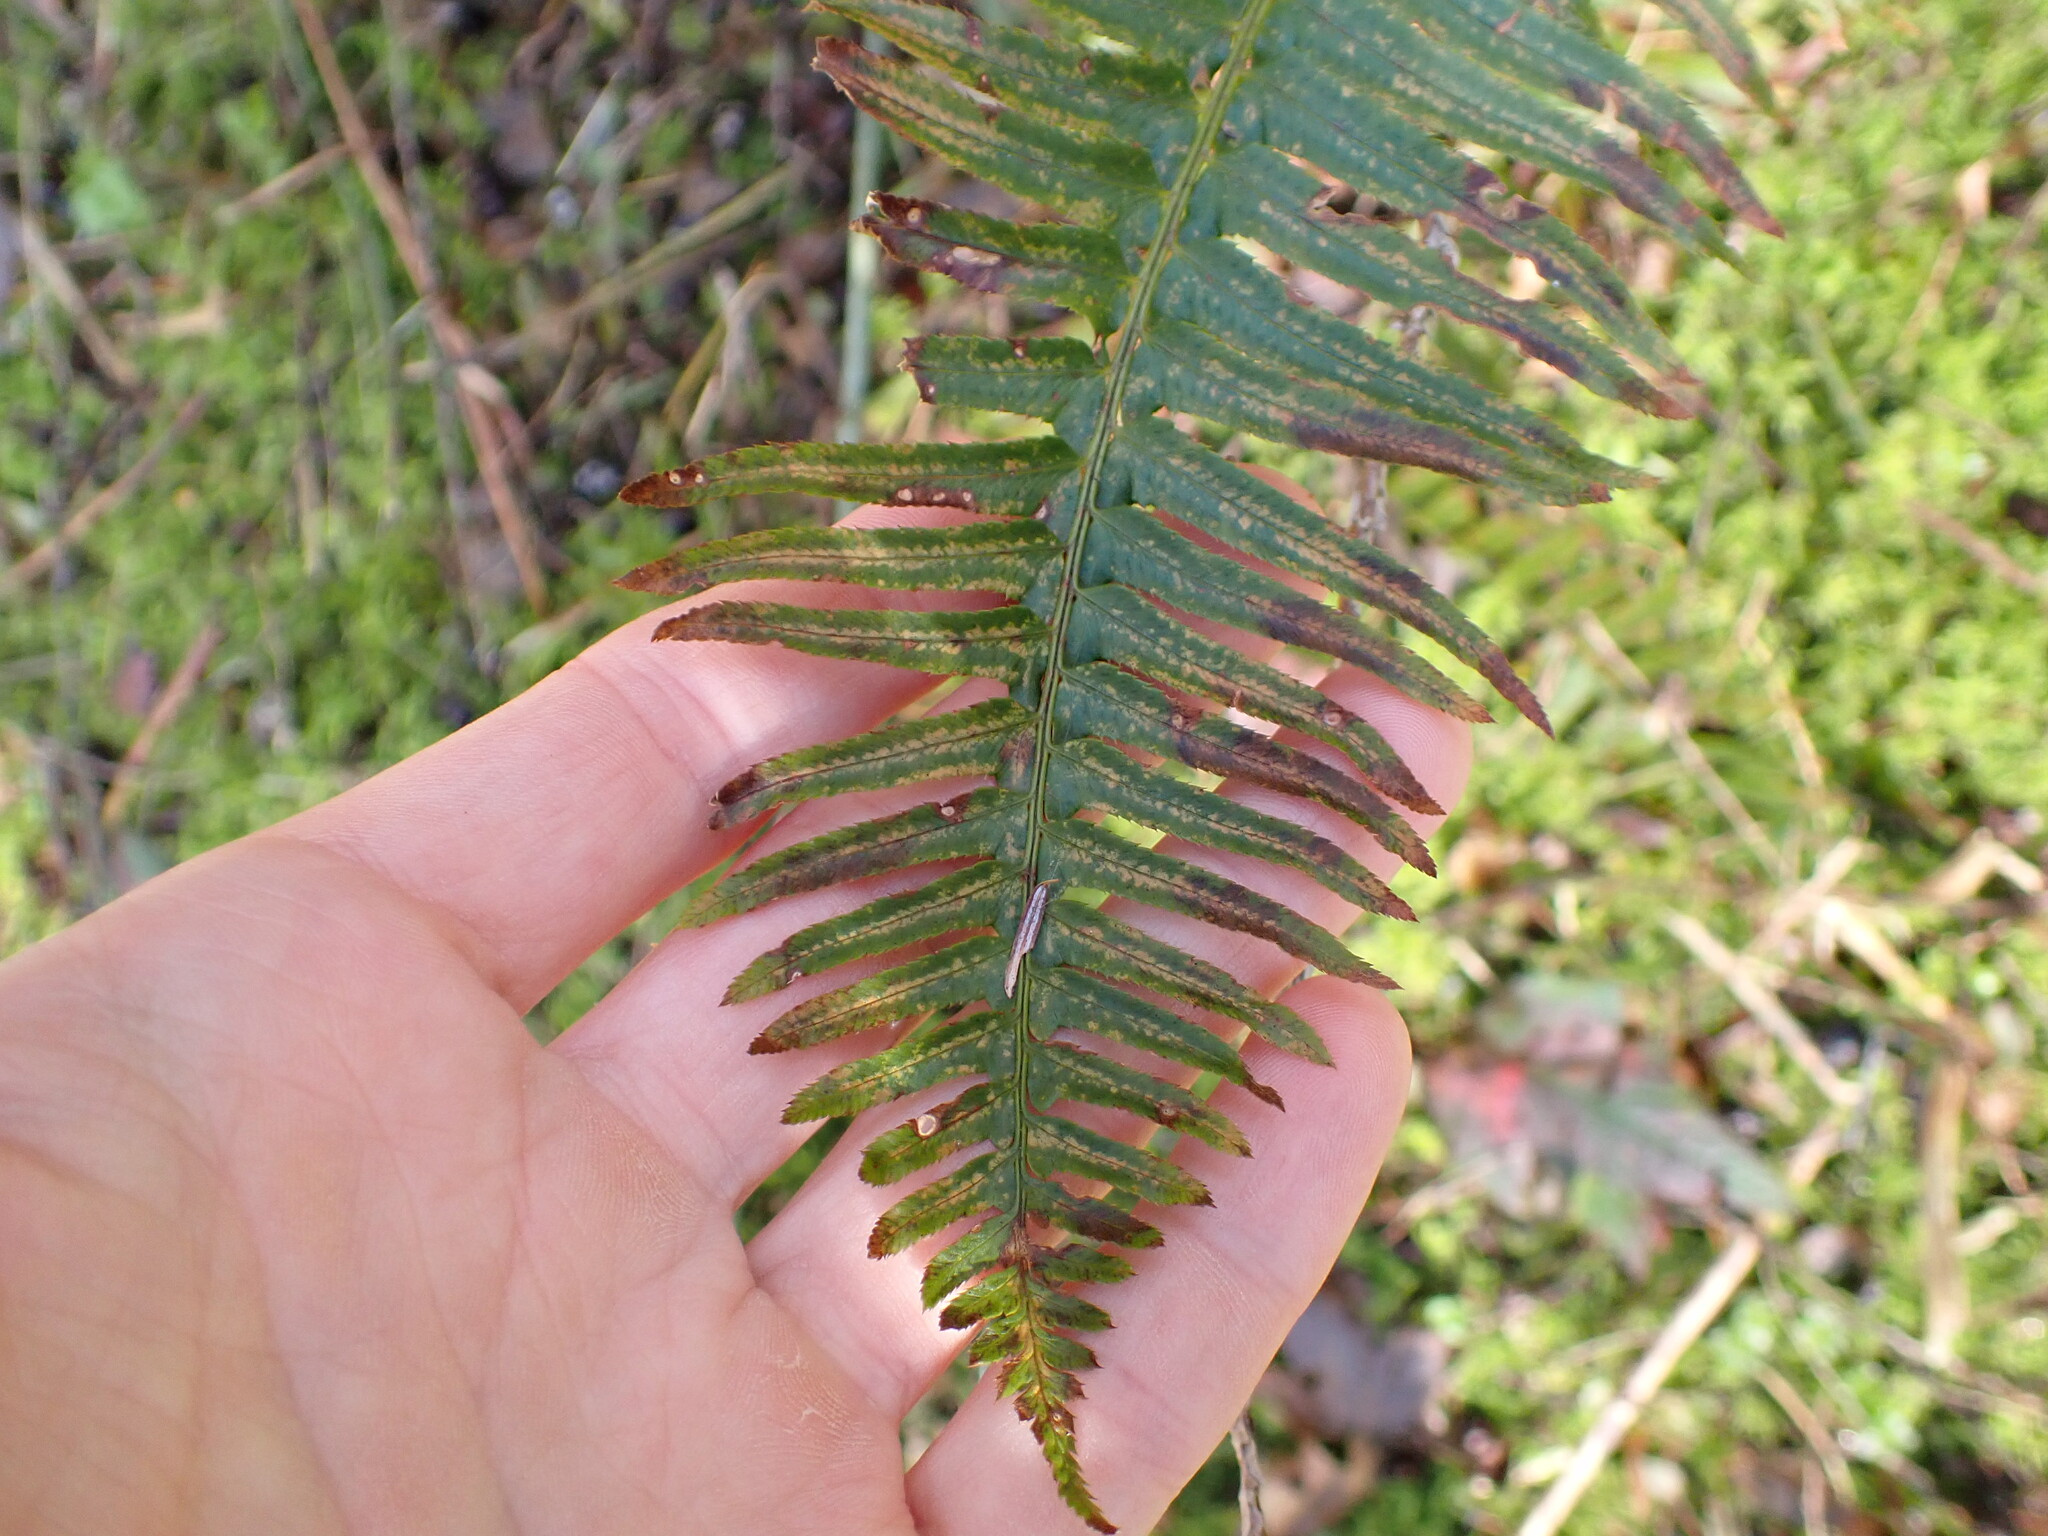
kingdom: Plantae
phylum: Tracheophyta
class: Polypodiopsida
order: Polypodiales
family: Dryopteridaceae
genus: Polystichum
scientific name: Polystichum munitum
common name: Western sword-fern
